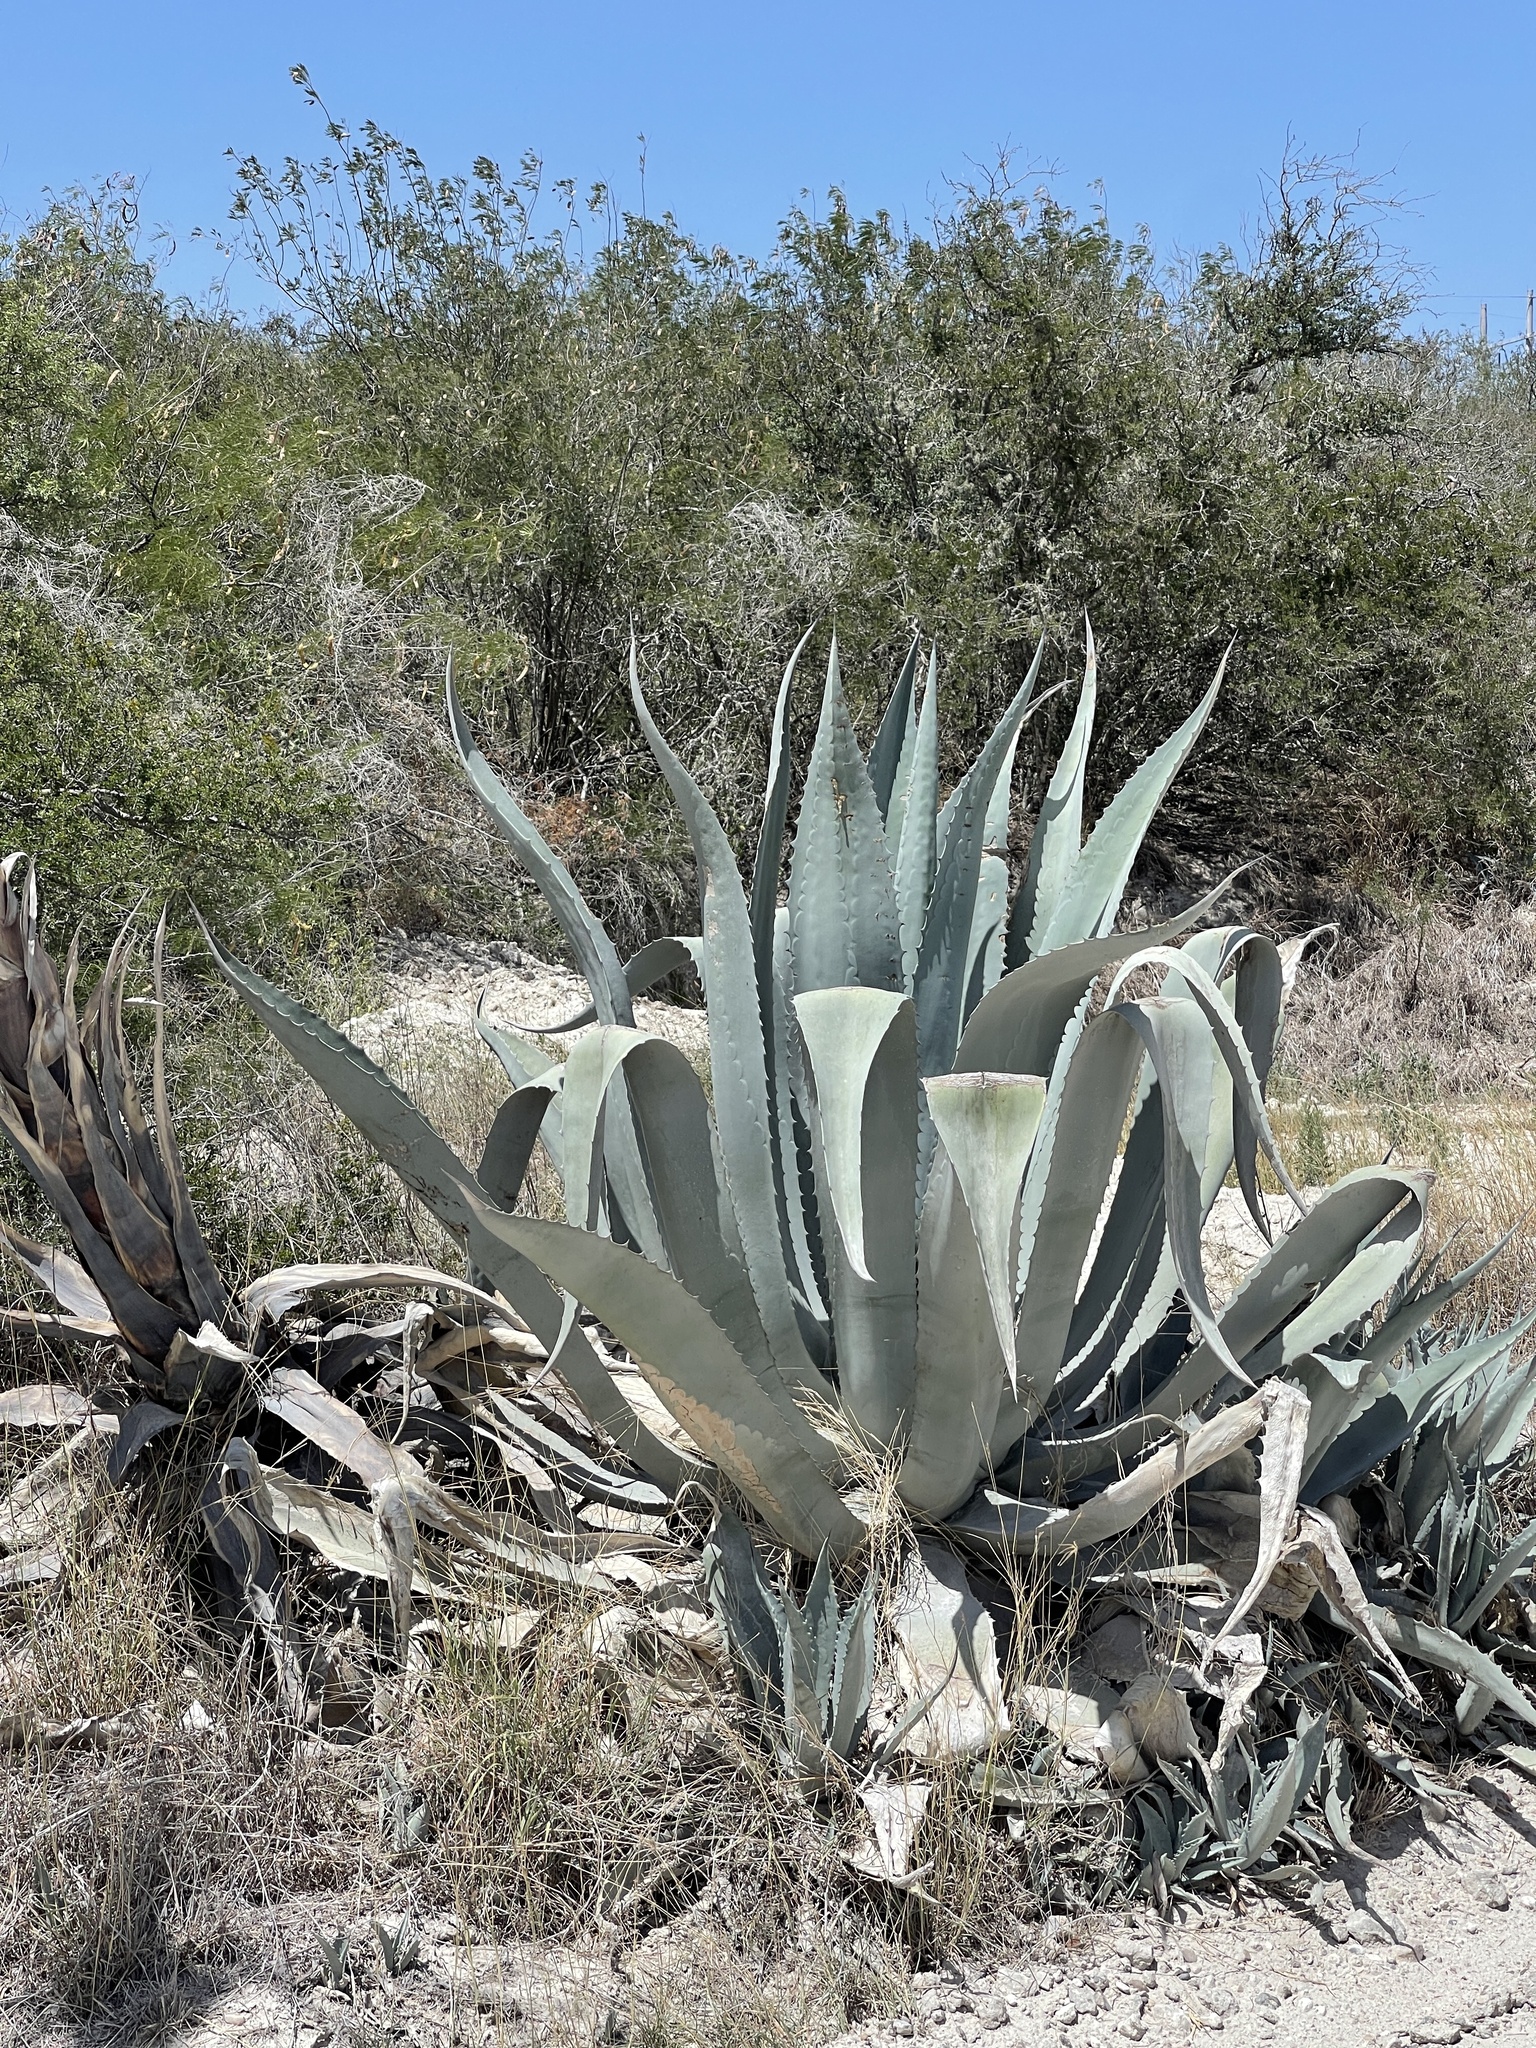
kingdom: Plantae
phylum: Tracheophyta
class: Liliopsida
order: Asparagales
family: Asparagaceae
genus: Agave
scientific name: Agave americana
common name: Centuryplant
